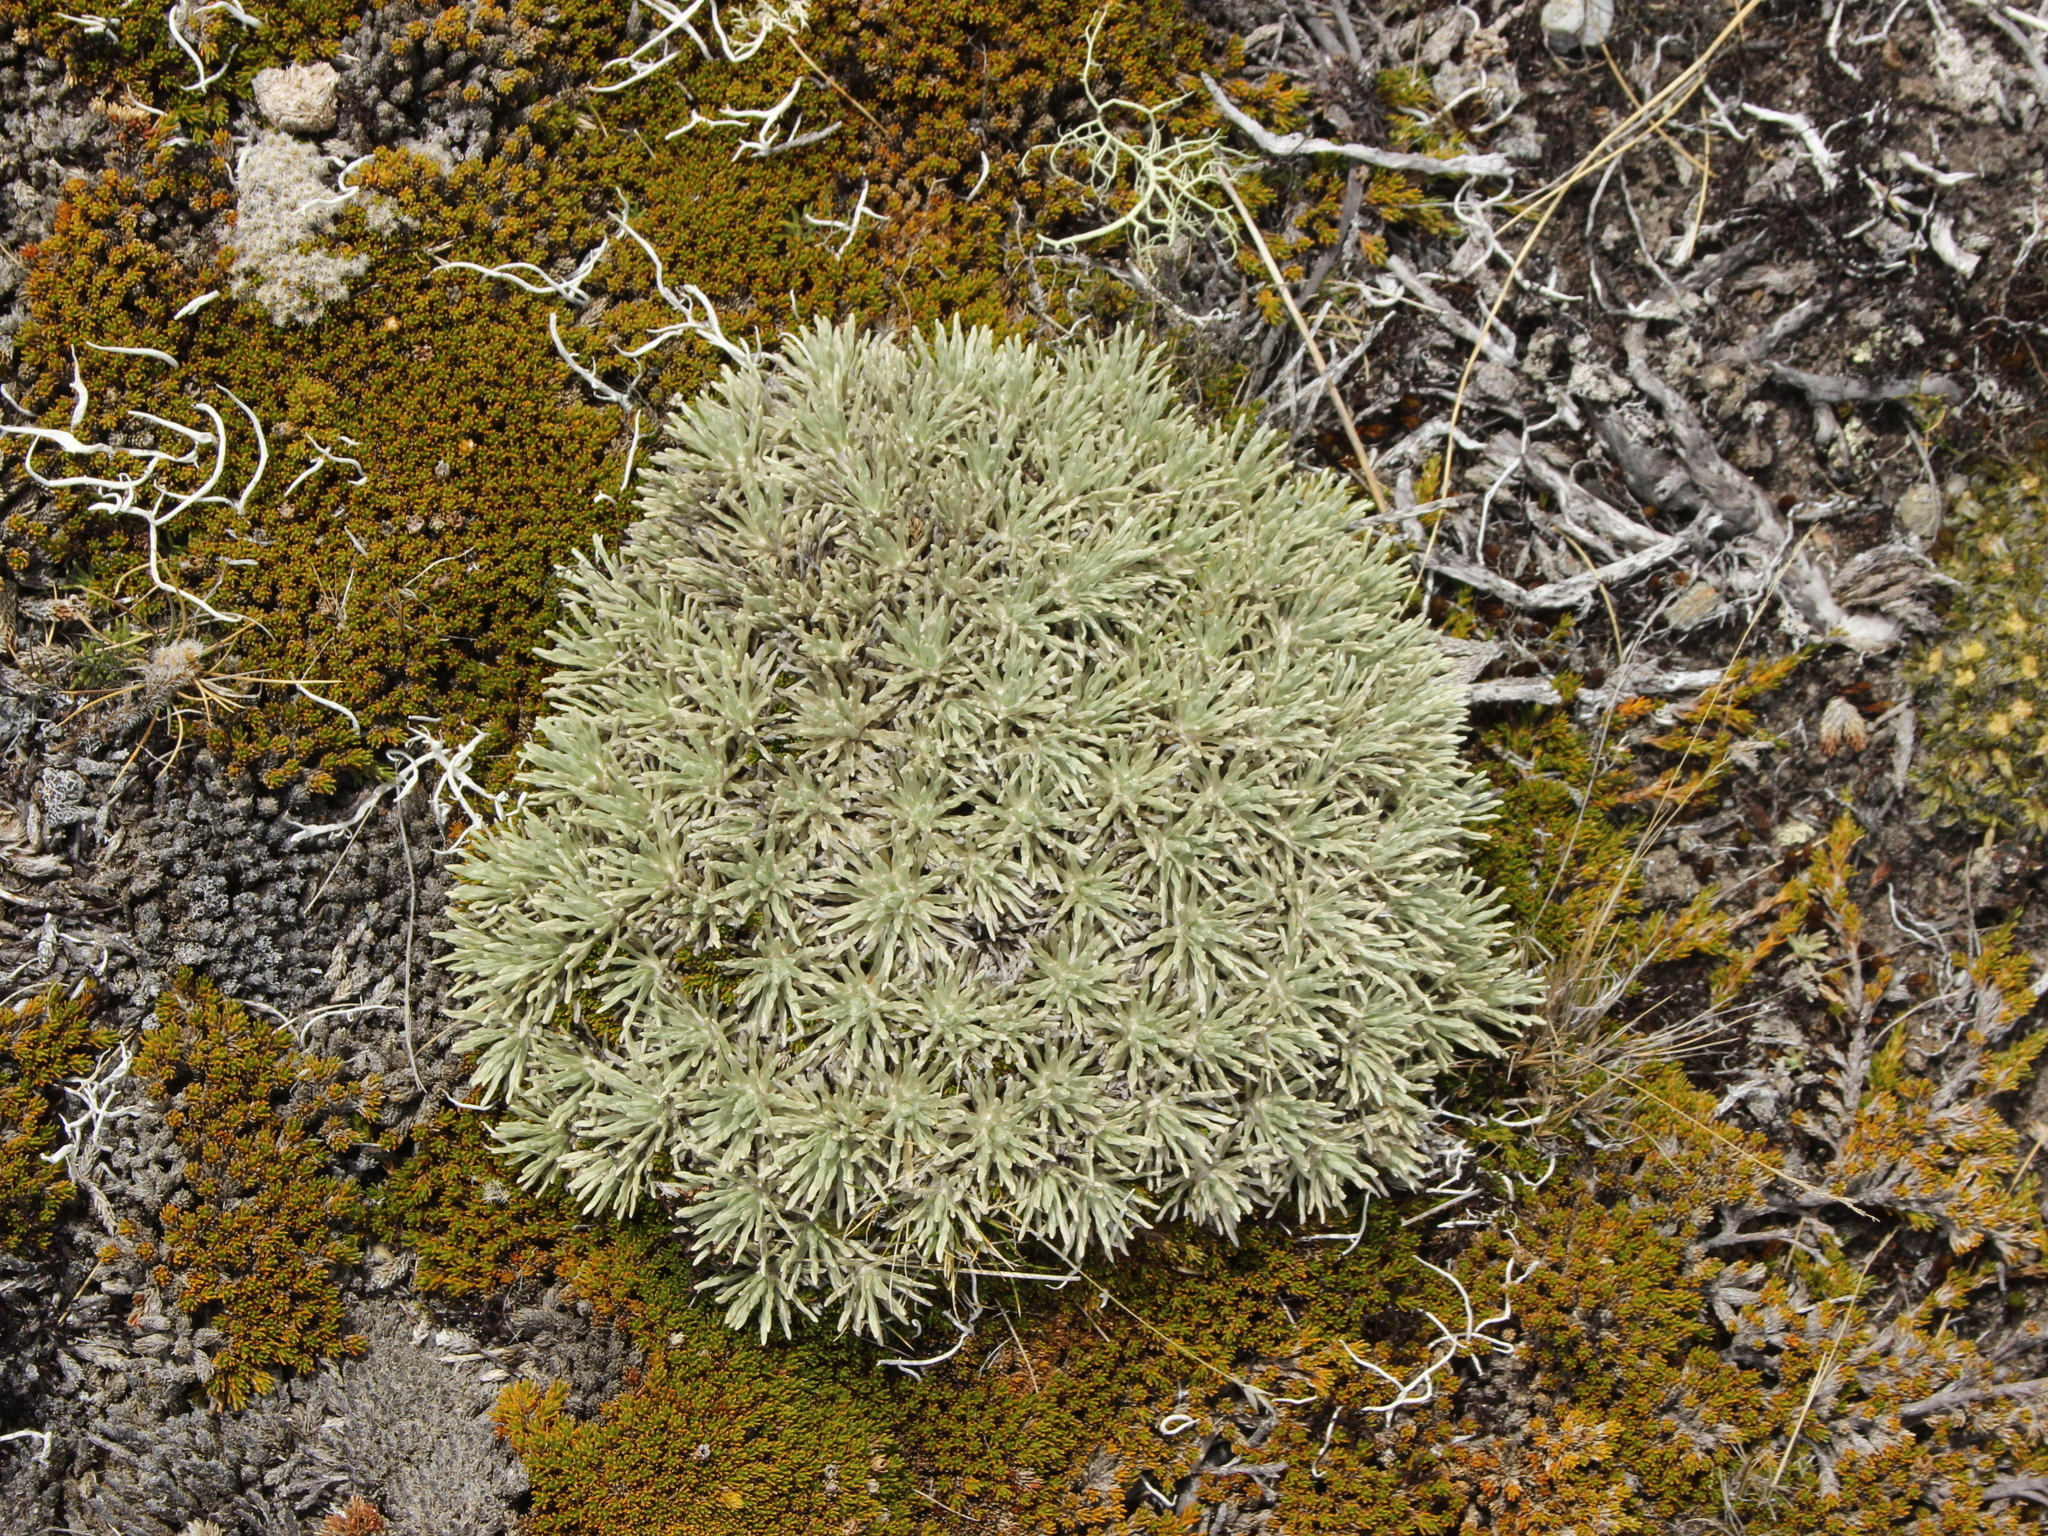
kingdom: Plantae
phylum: Tracheophyta
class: Magnoliopsida
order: Asterales
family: Asteraceae
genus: Celmisia
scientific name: Celmisia sessiliflora
